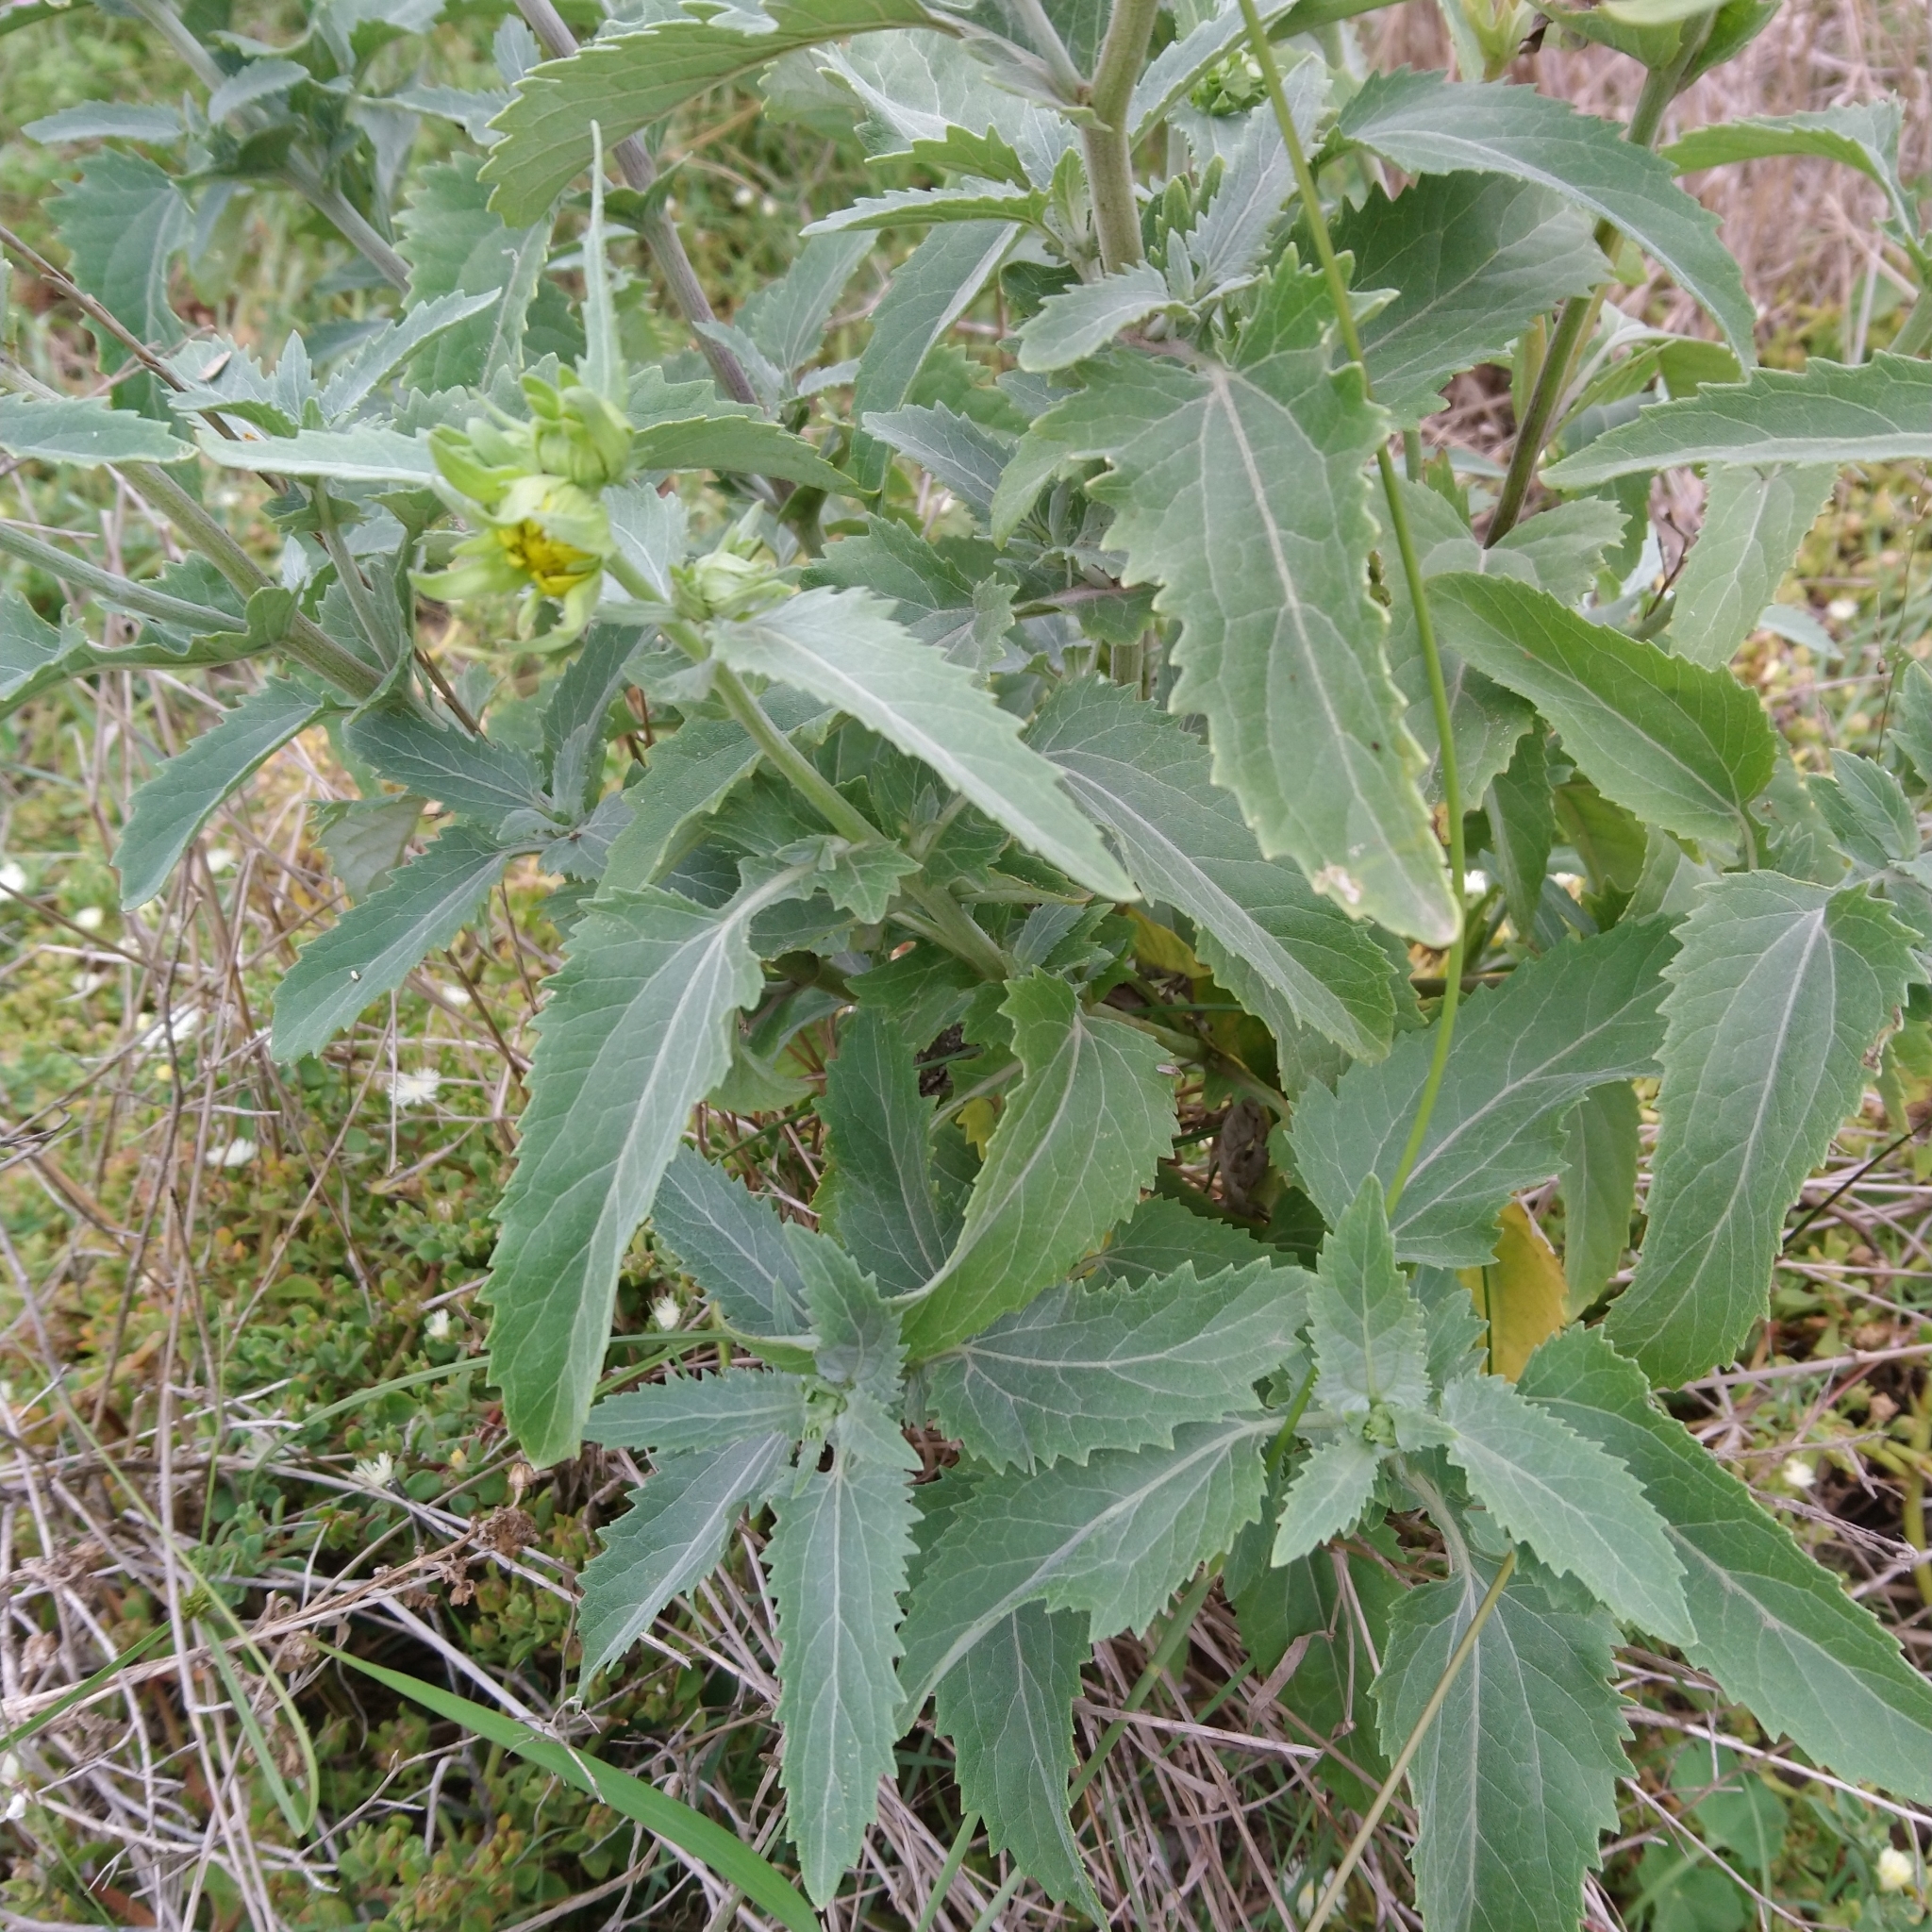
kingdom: Plantae
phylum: Tracheophyta
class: Magnoliopsida
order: Asterales
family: Asteraceae
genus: Verbesina
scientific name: Verbesina encelioides
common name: Golden crownbeard
